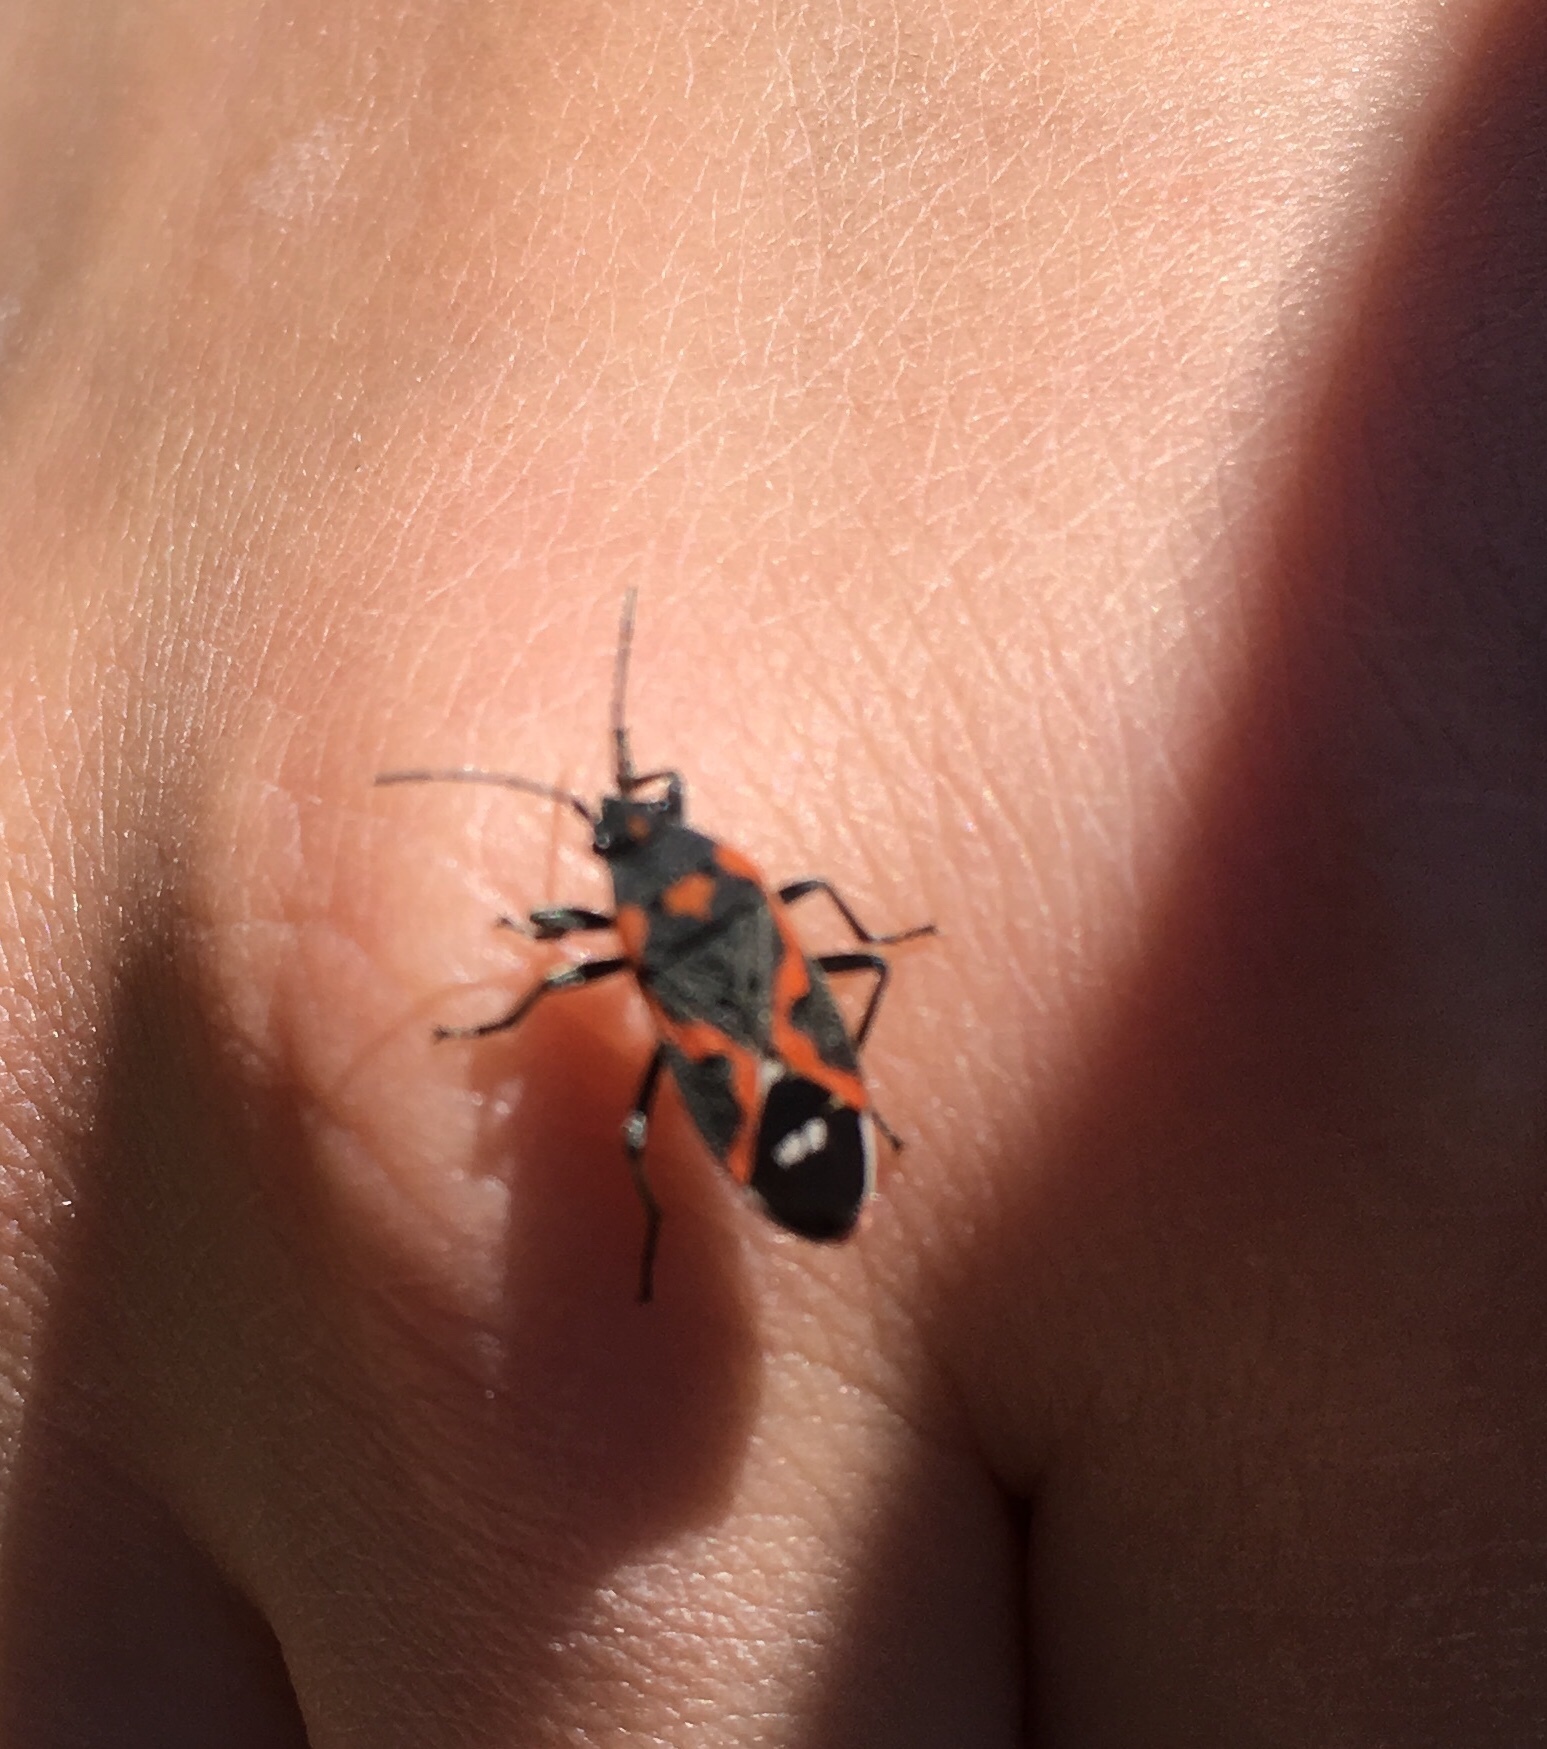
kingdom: Animalia
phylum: Arthropoda
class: Insecta
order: Hemiptera
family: Lygaeidae
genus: Lygaeus
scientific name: Lygaeus kalmii
